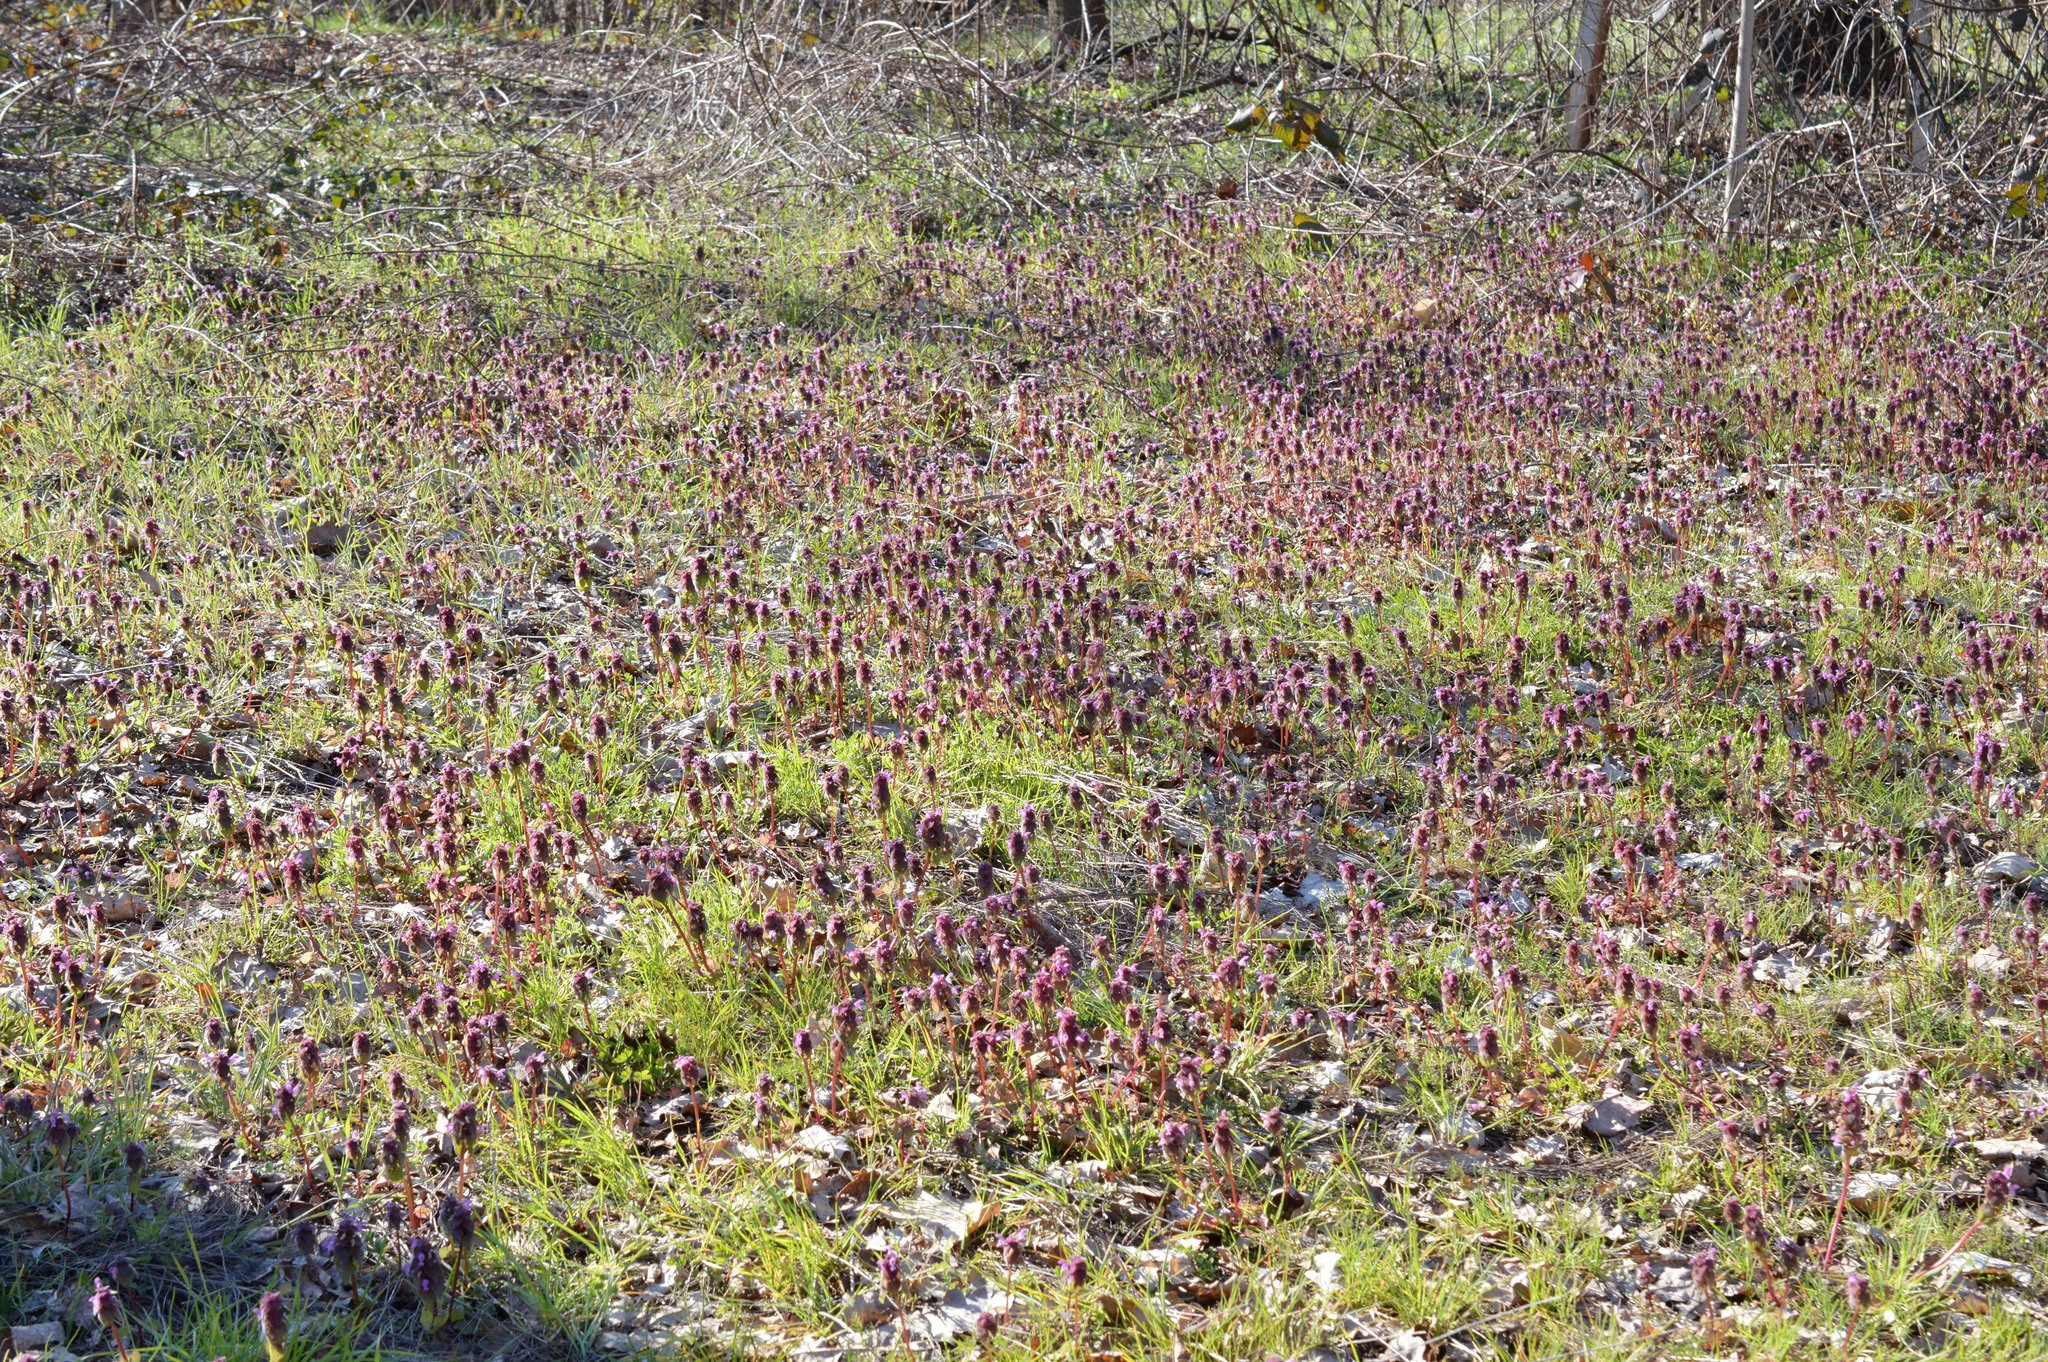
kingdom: Plantae
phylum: Tracheophyta
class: Magnoliopsida
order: Lamiales
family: Lamiaceae
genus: Lamium
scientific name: Lamium purpureum
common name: Red dead-nettle
